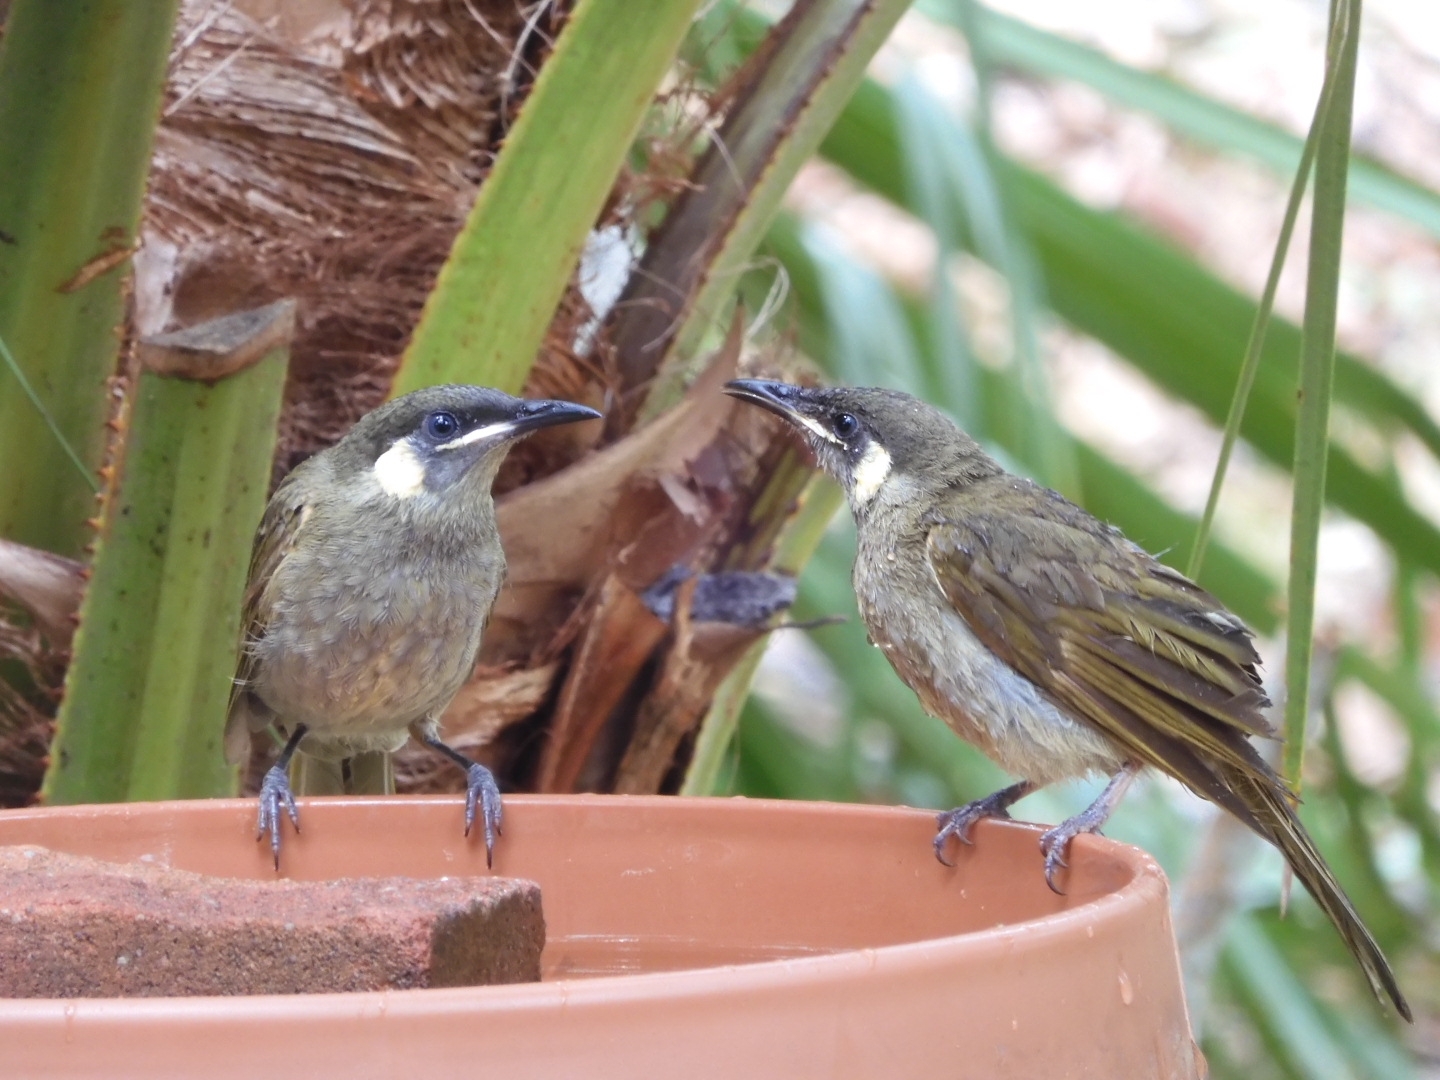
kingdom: Animalia
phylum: Chordata
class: Aves
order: Passeriformes
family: Meliphagidae
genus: Meliphaga
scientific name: Meliphaga lewinii
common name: Lewin's honeyeater
